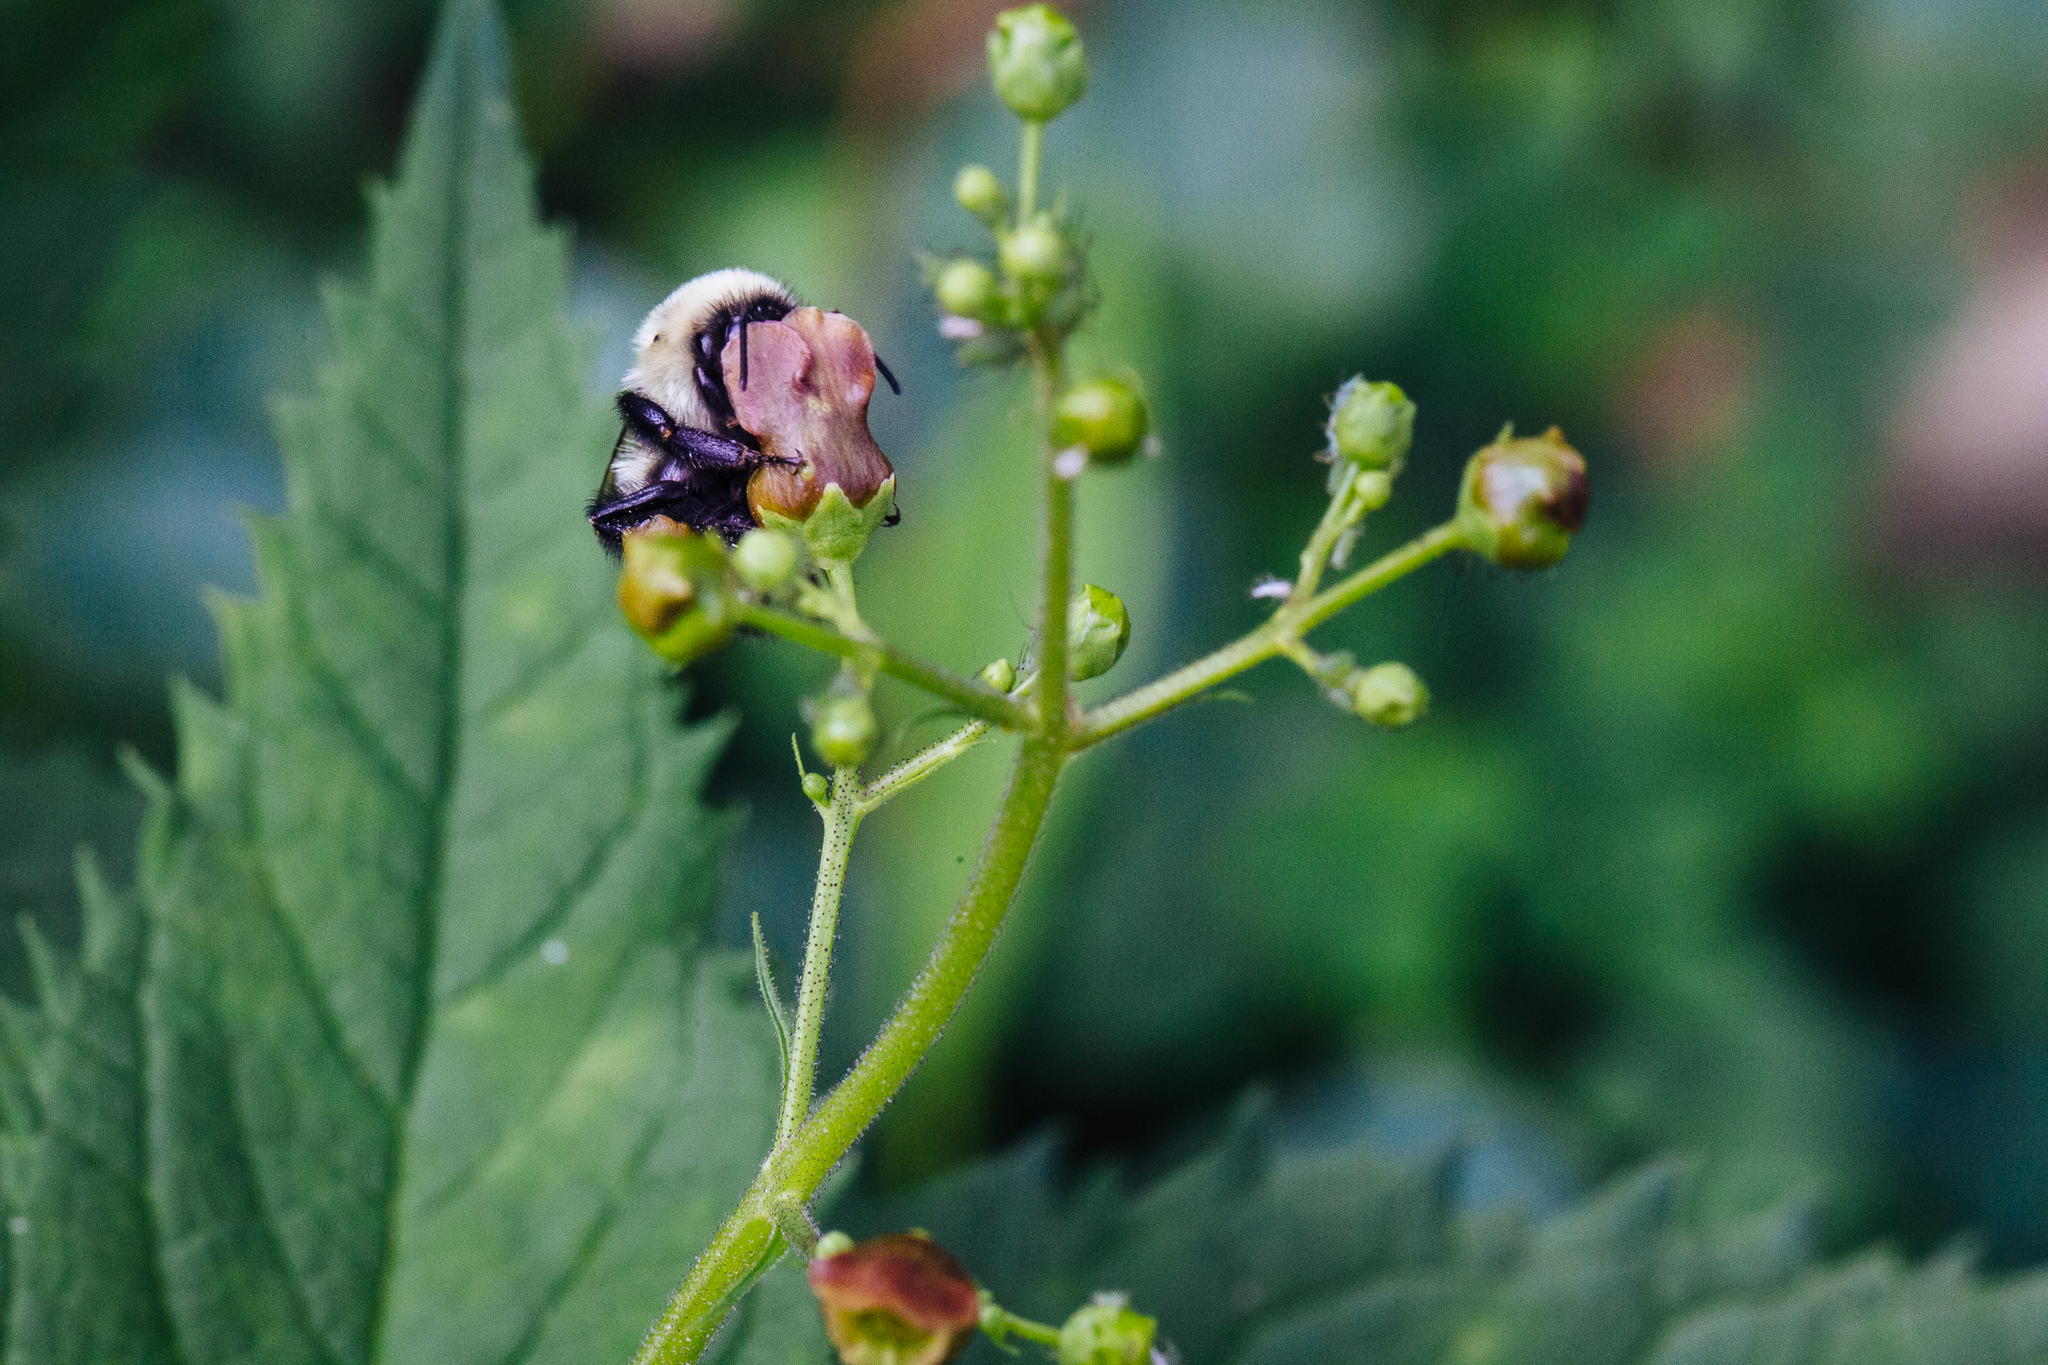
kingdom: Animalia
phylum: Arthropoda
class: Insecta
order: Hymenoptera
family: Apidae
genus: Bombus
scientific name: Bombus impatiens
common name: Common eastern bumble bee
